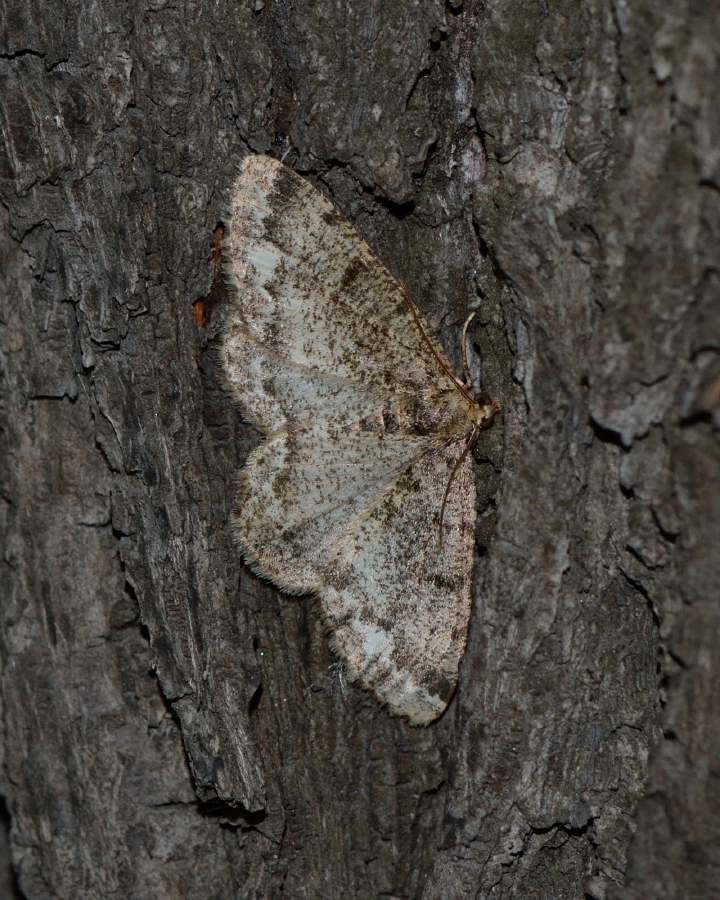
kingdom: Animalia
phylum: Arthropoda
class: Insecta
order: Lepidoptera
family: Geometridae
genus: Parectropis
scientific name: Parectropis similaria
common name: Brindled white-spot
